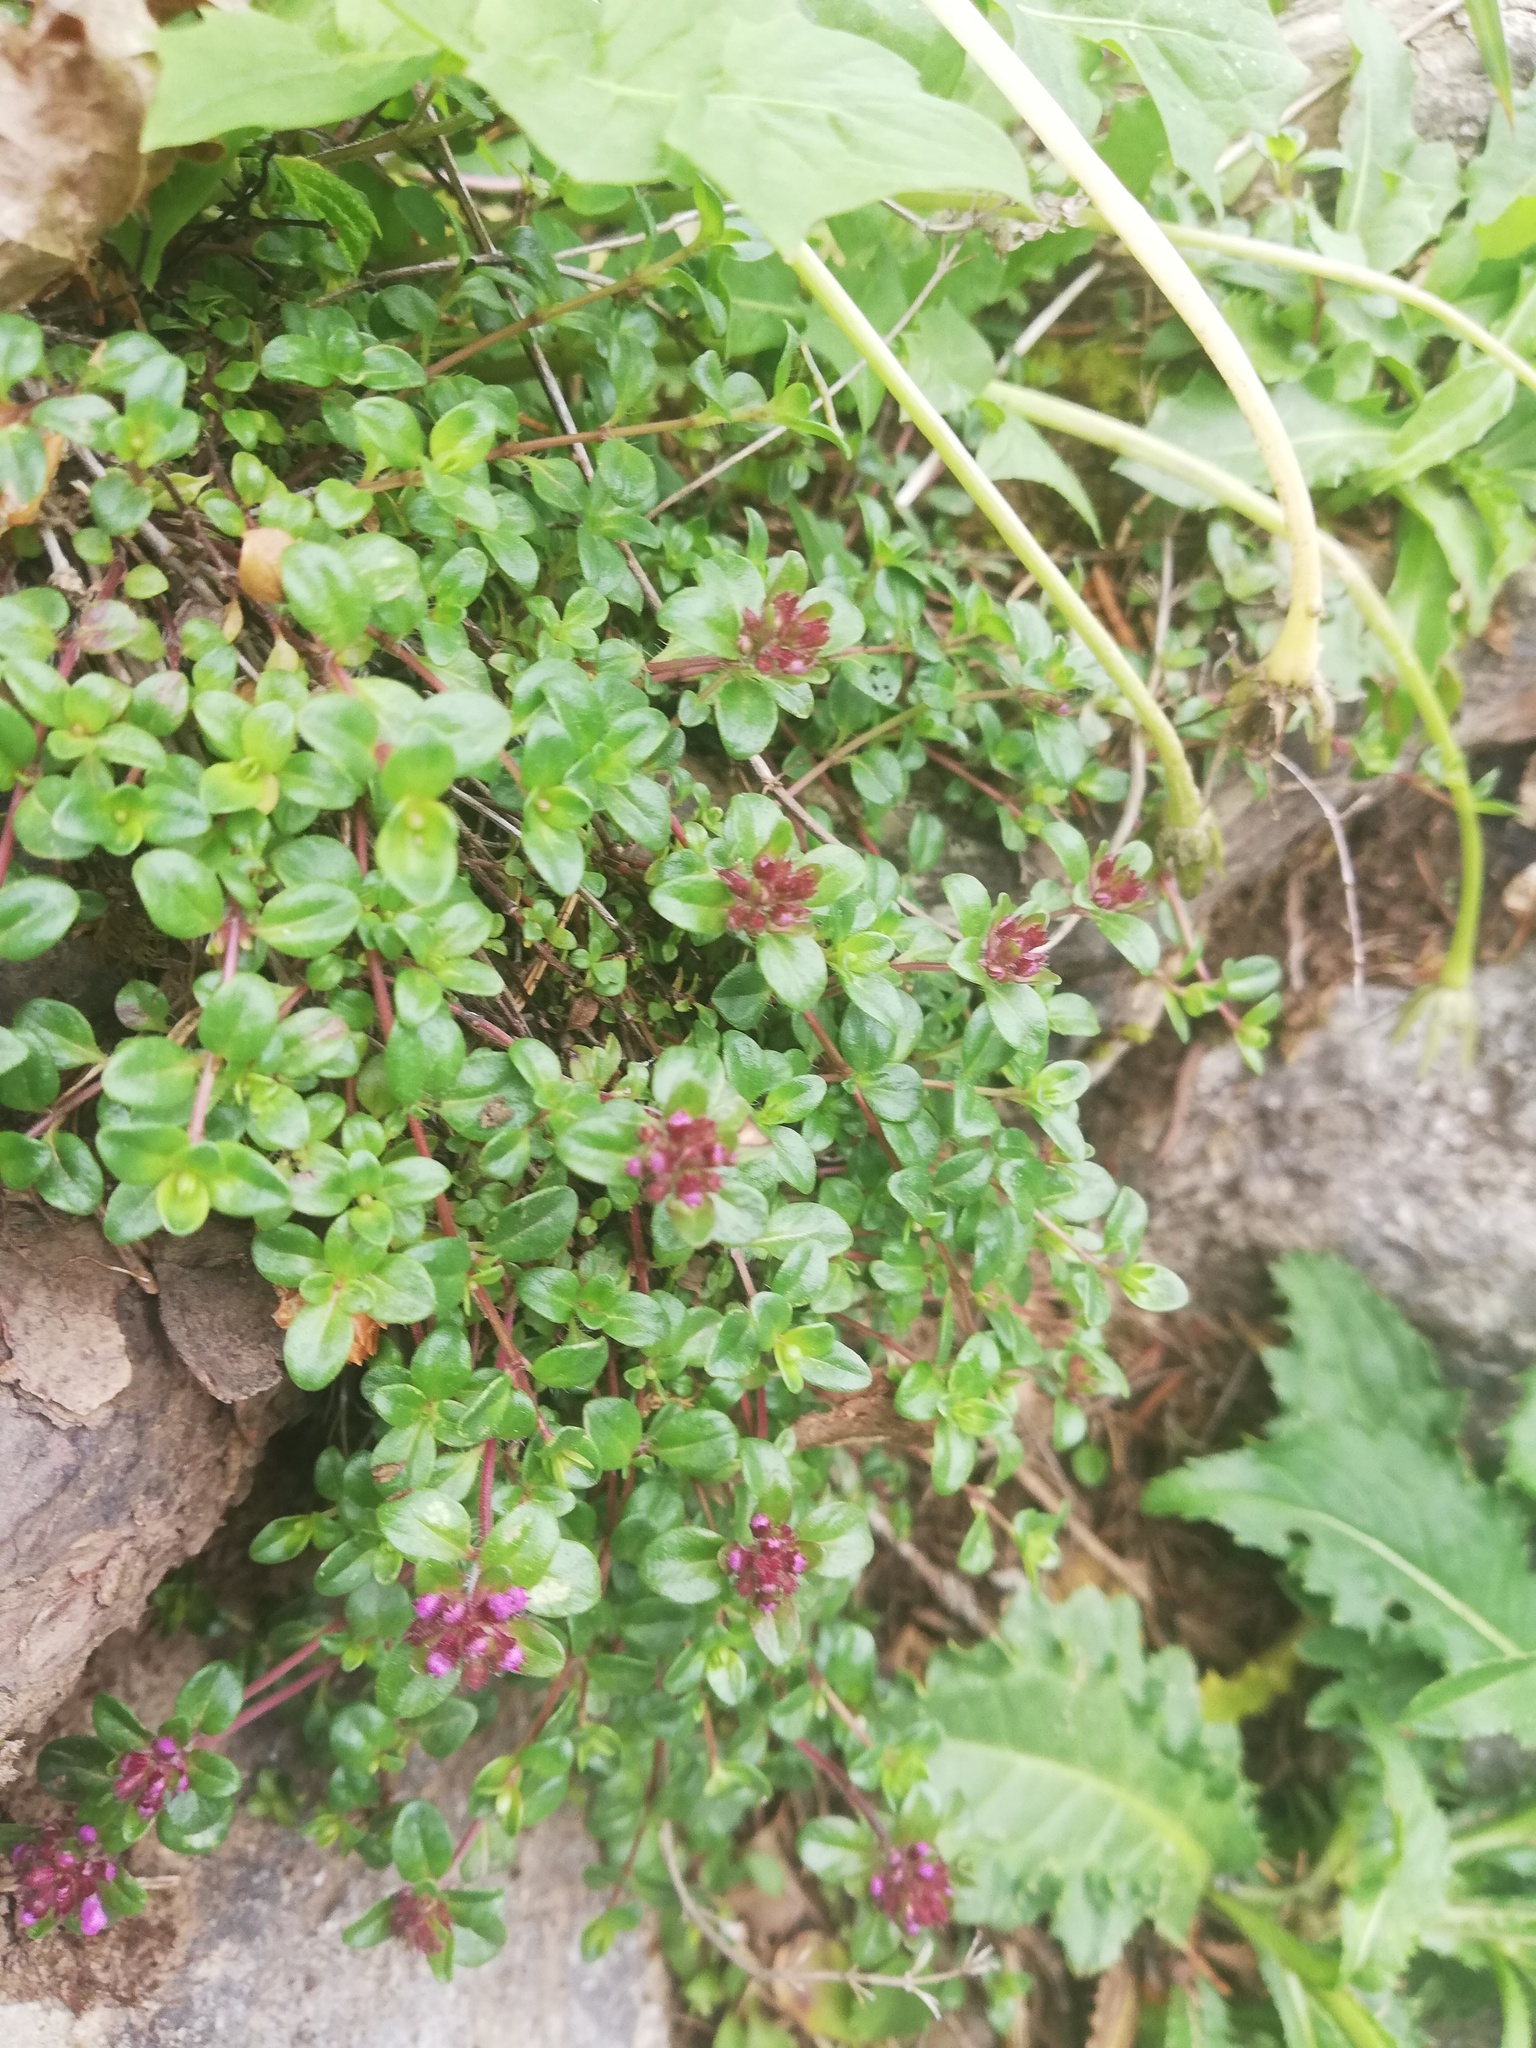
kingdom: Plantae
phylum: Tracheophyta
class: Magnoliopsida
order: Lamiales
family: Lamiaceae
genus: Thymus
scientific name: Thymus pulegioides
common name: Large thyme
